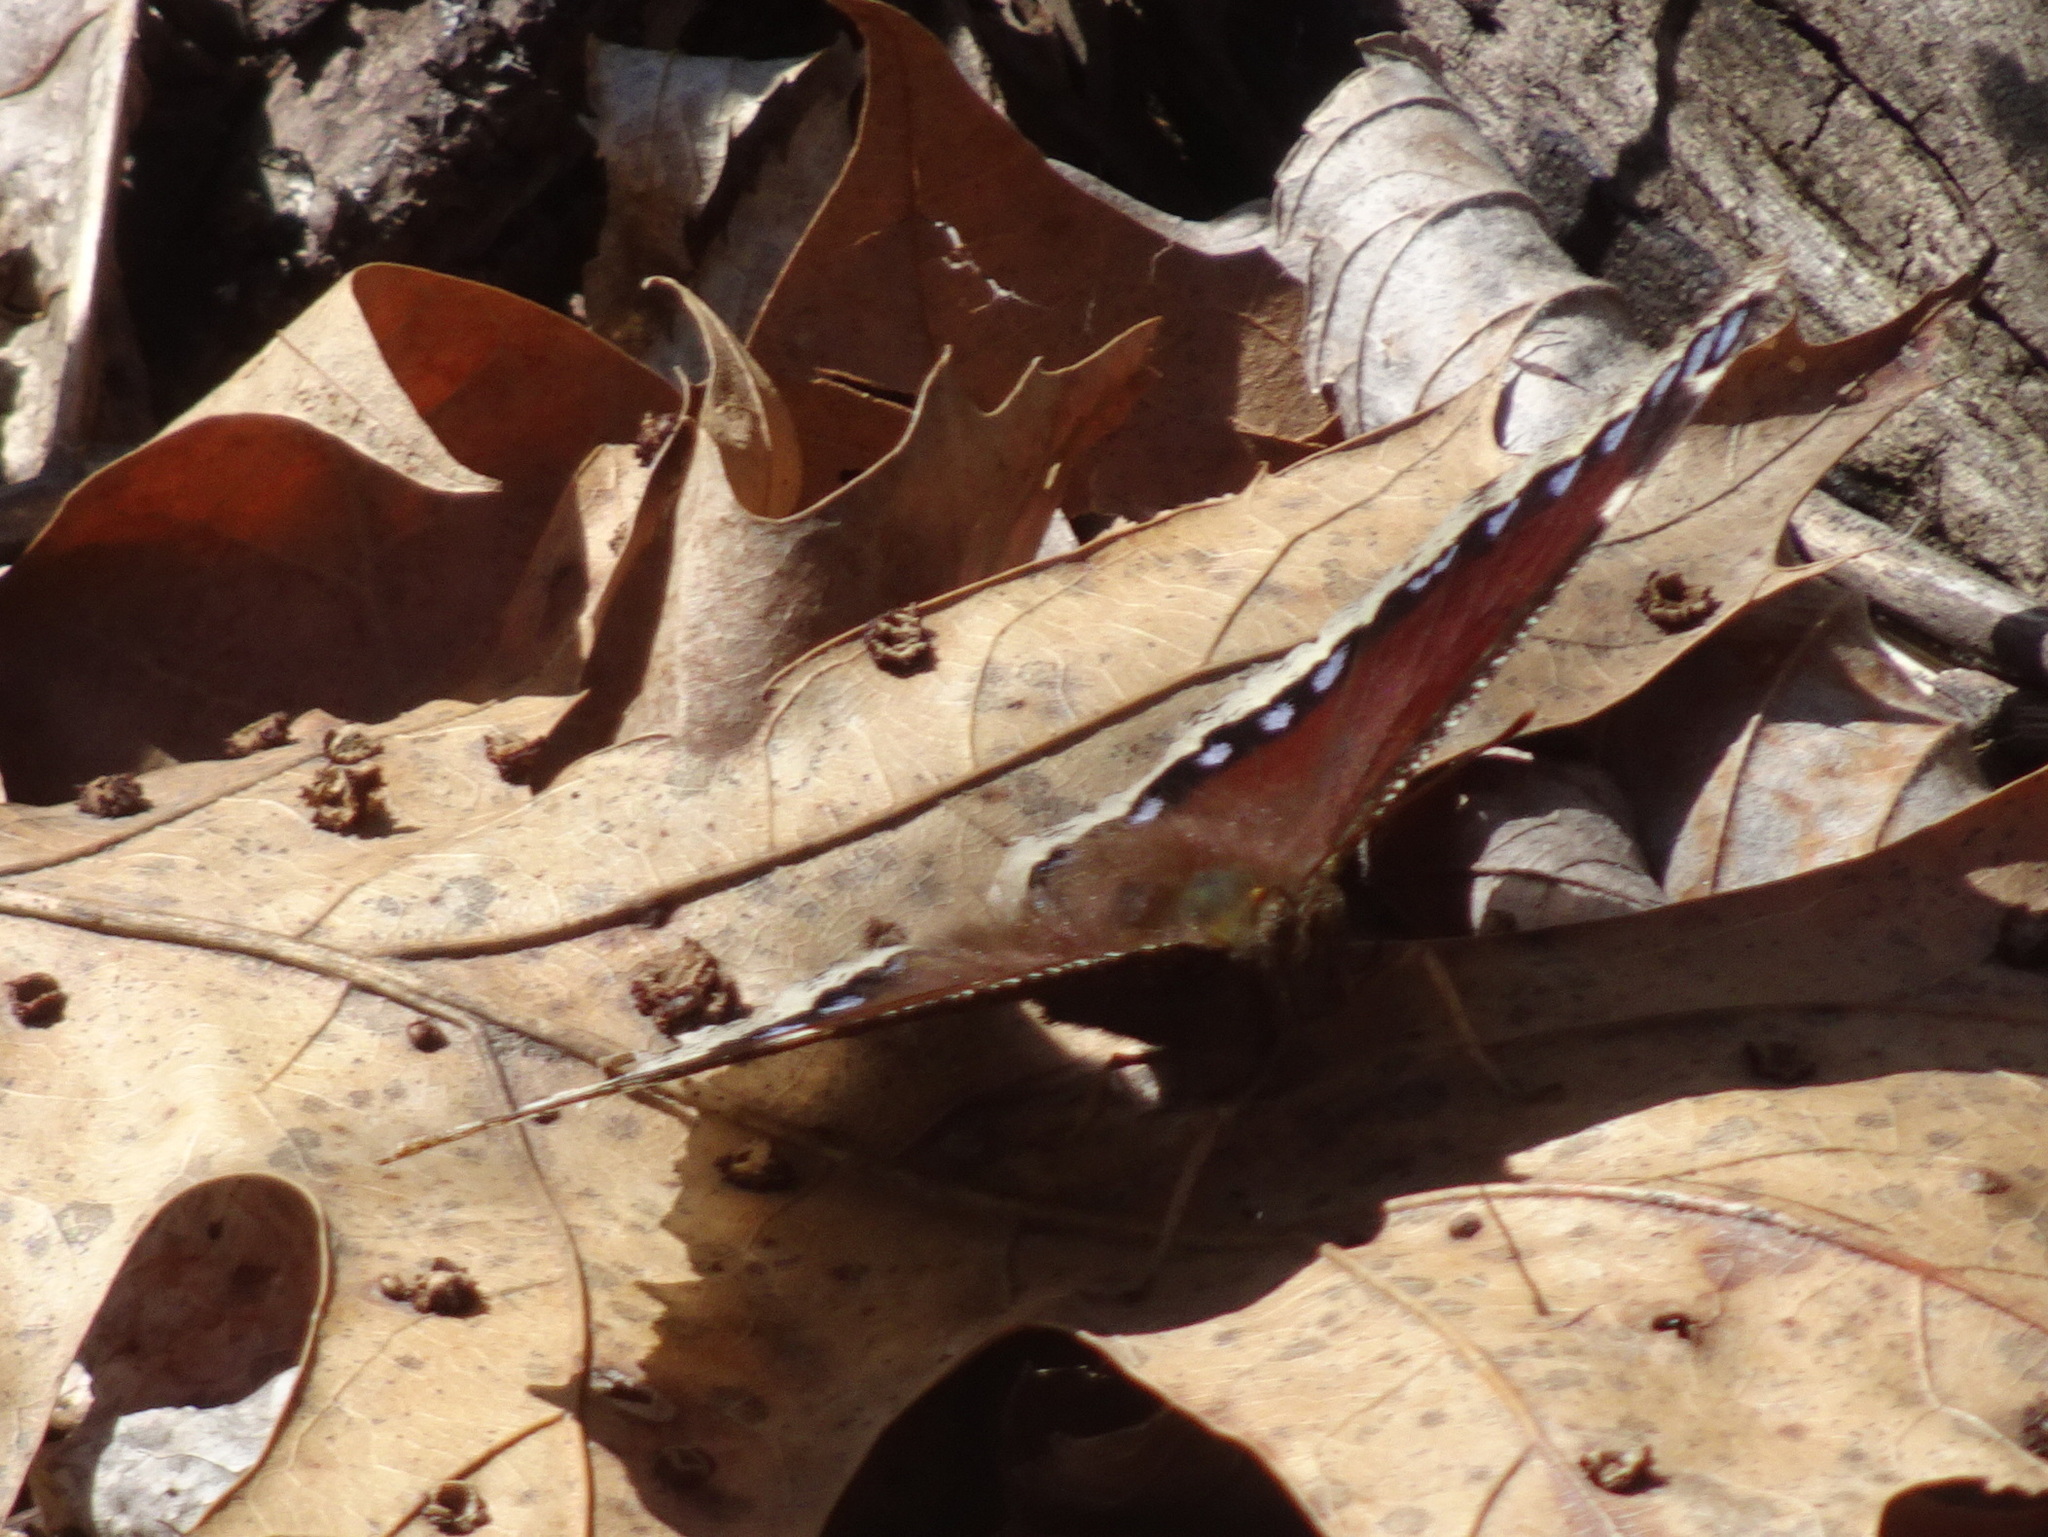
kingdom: Animalia
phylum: Arthropoda
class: Insecta
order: Lepidoptera
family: Nymphalidae
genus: Nymphalis
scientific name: Nymphalis antiopa
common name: Camberwell beauty
